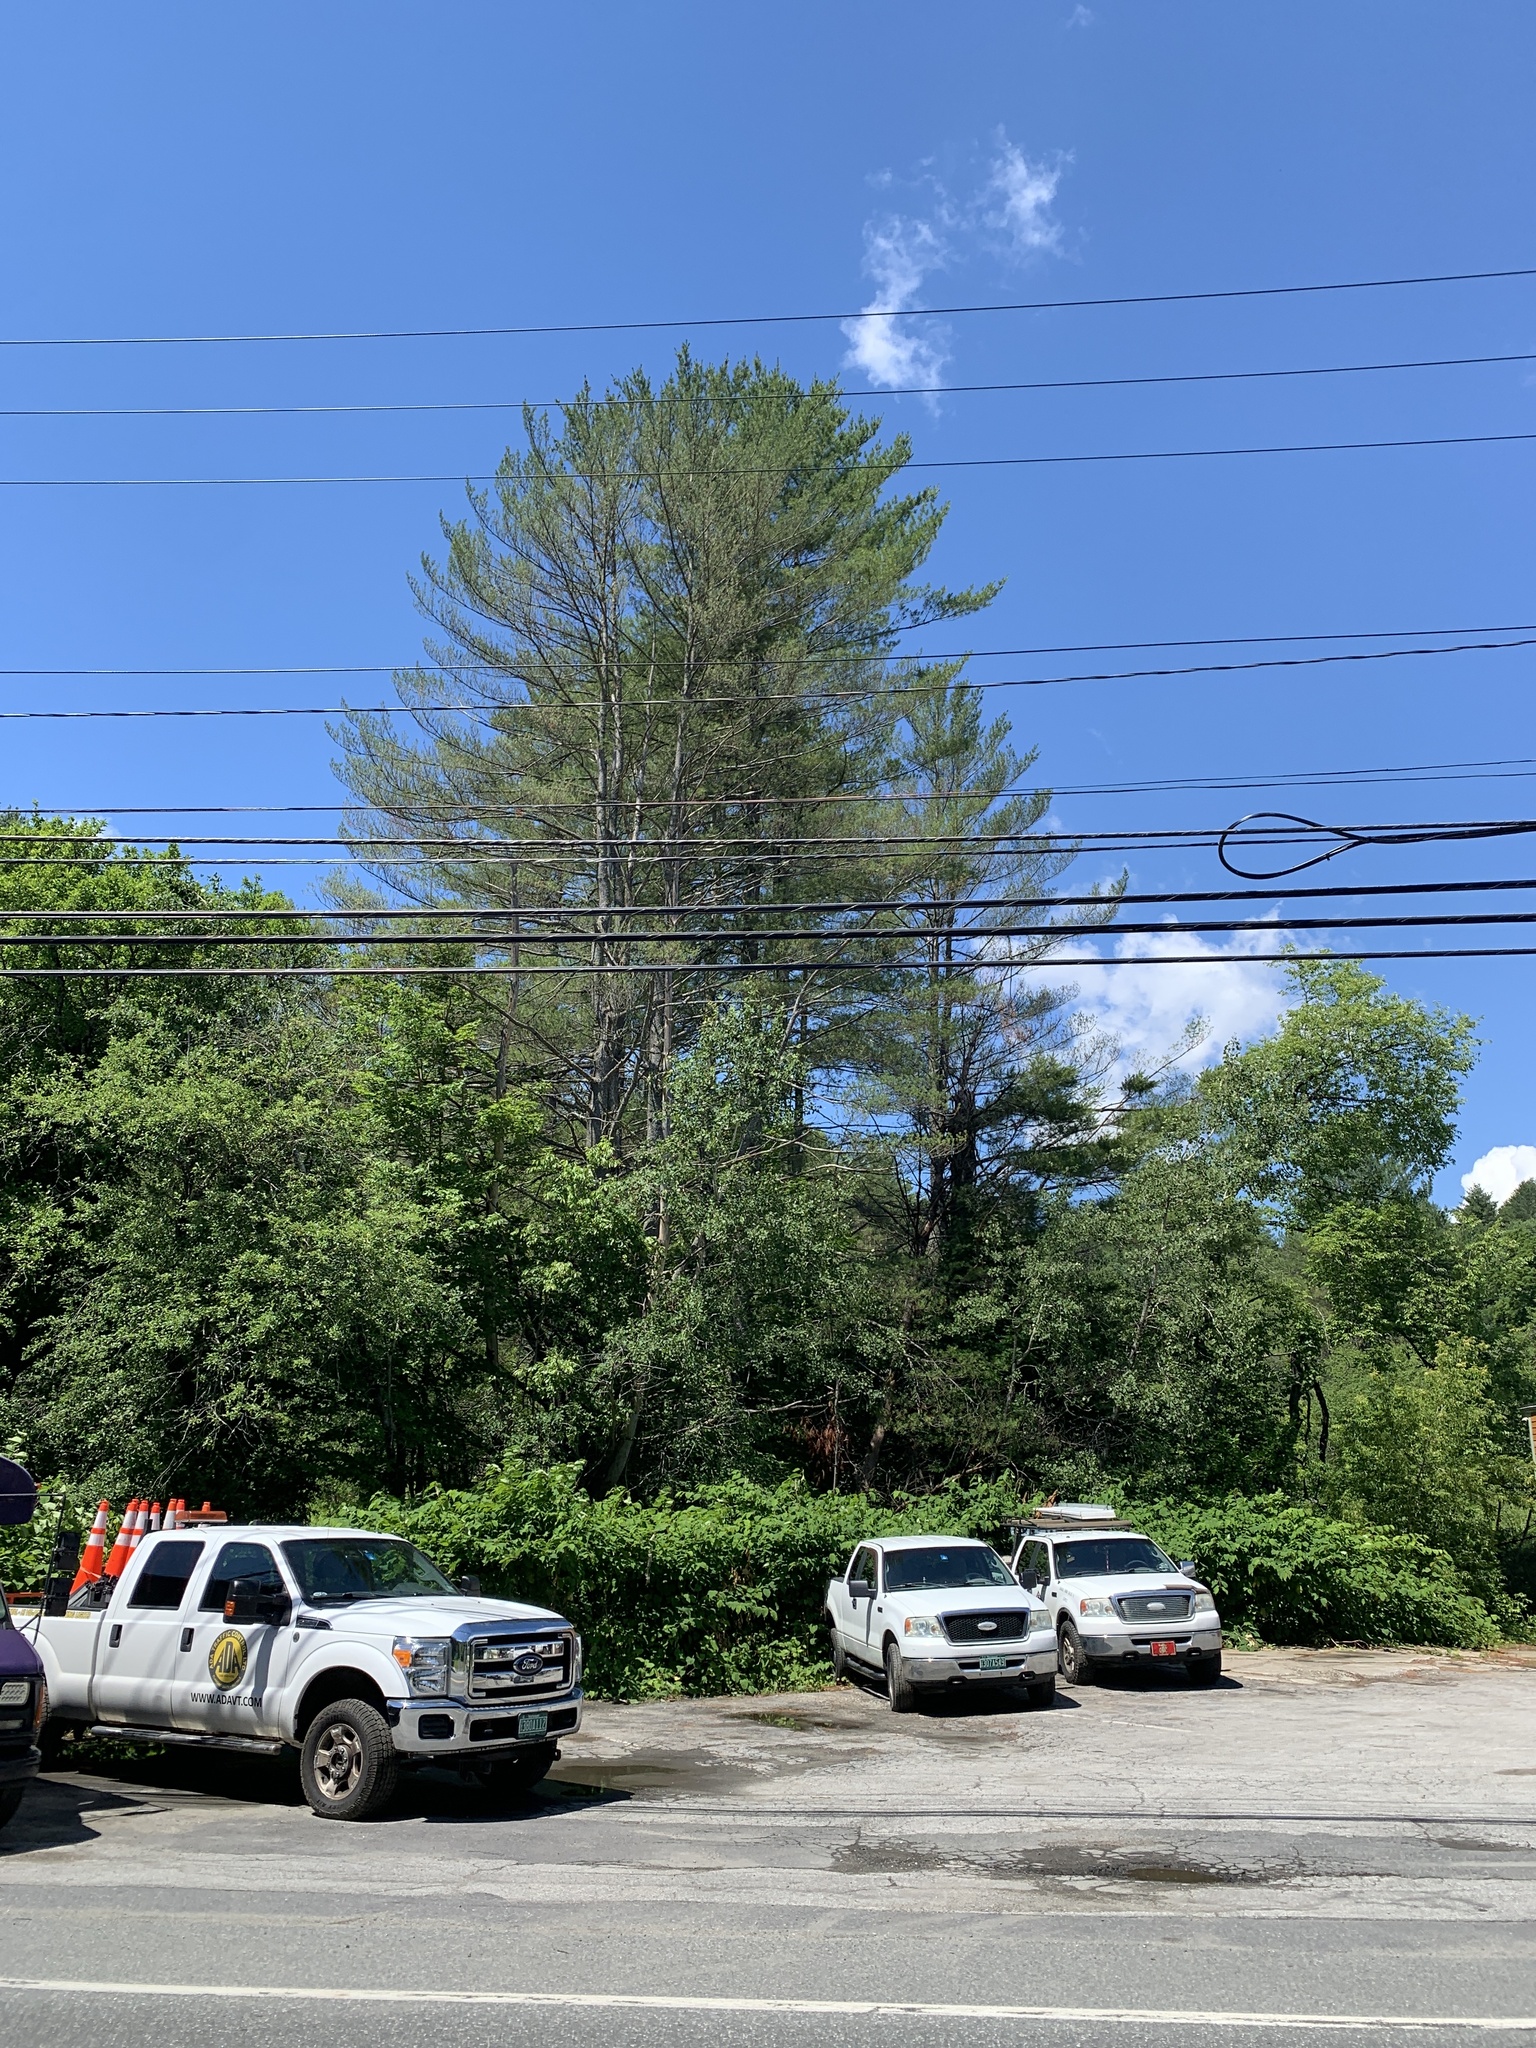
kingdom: Plantae
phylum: Tracheophyta
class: Pinopsida
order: Pinales
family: Pinaceae
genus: Pinus
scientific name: Pinus strobus
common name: Weymouth pine
